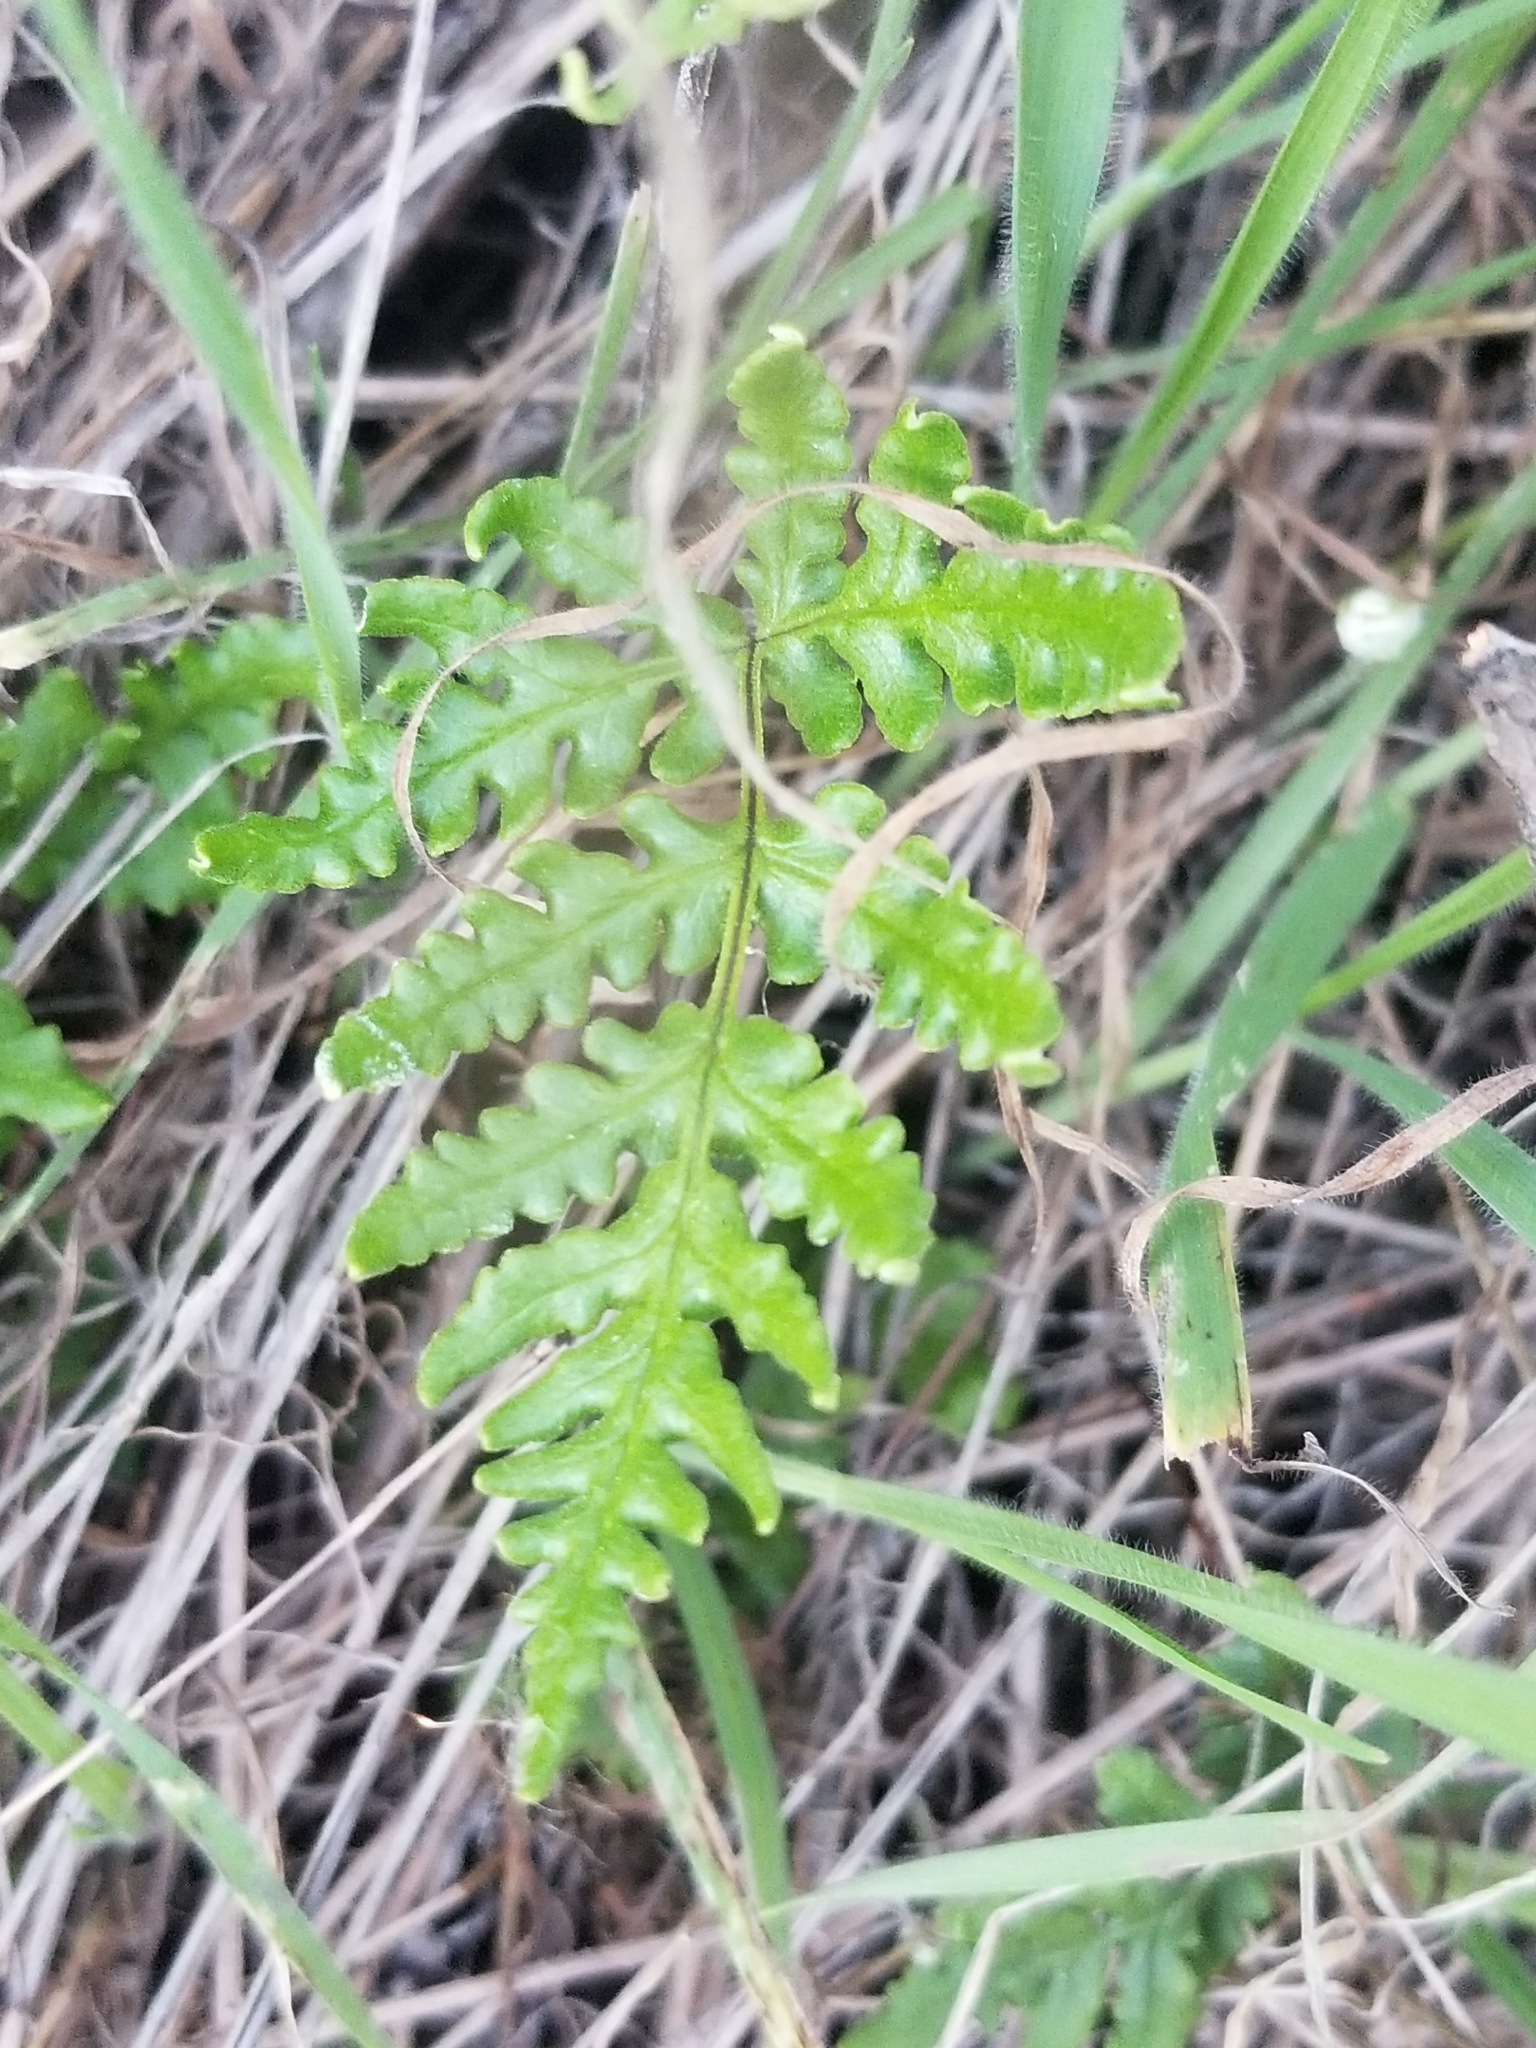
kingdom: Plantae
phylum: Tracheophyta
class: Polypodiopsida
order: Polypodiales
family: Pteridaceae
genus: Pentagramma
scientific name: Pentagramma viscosa
